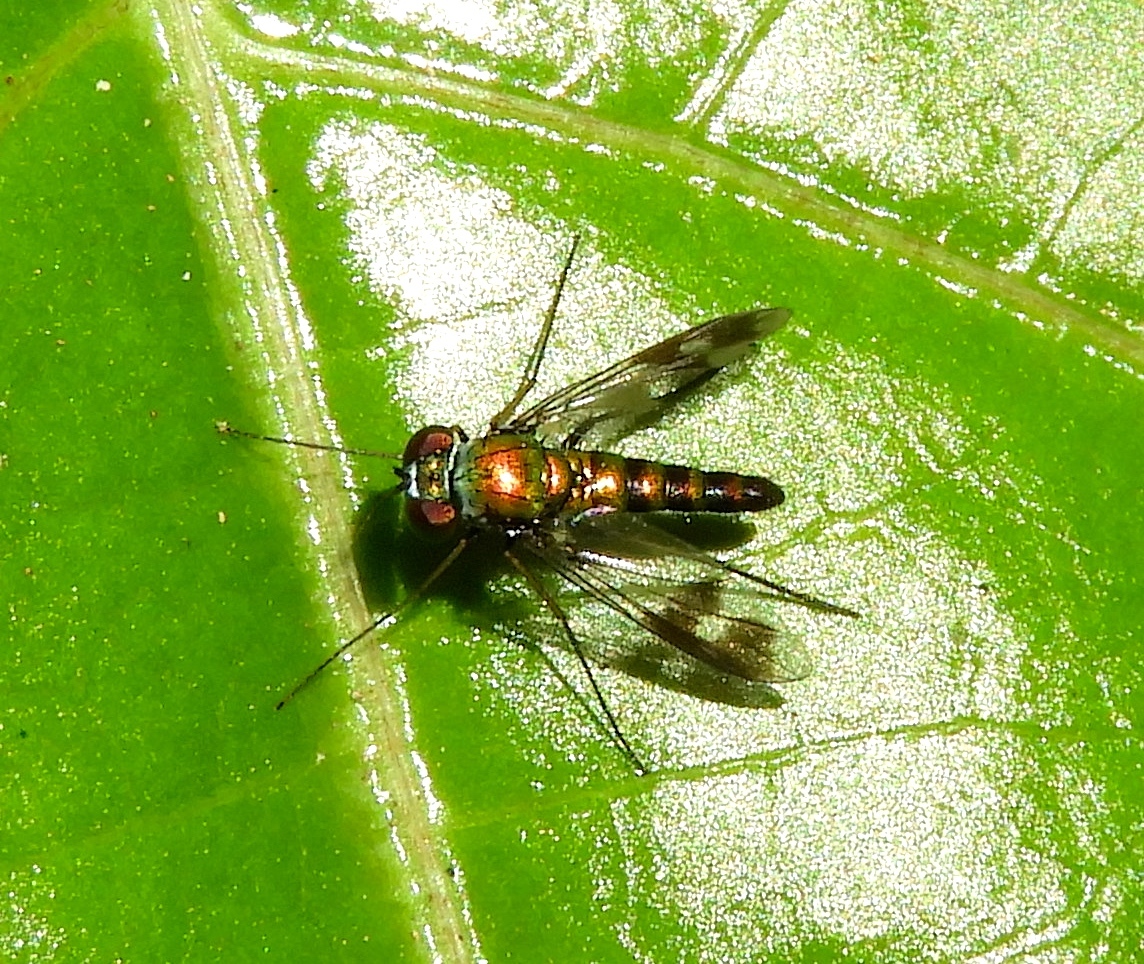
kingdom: Animalia
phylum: Arthropoda
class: Insecta
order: Diptera
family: Dolichopodidae
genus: Condylostylus
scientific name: Condylostylus
